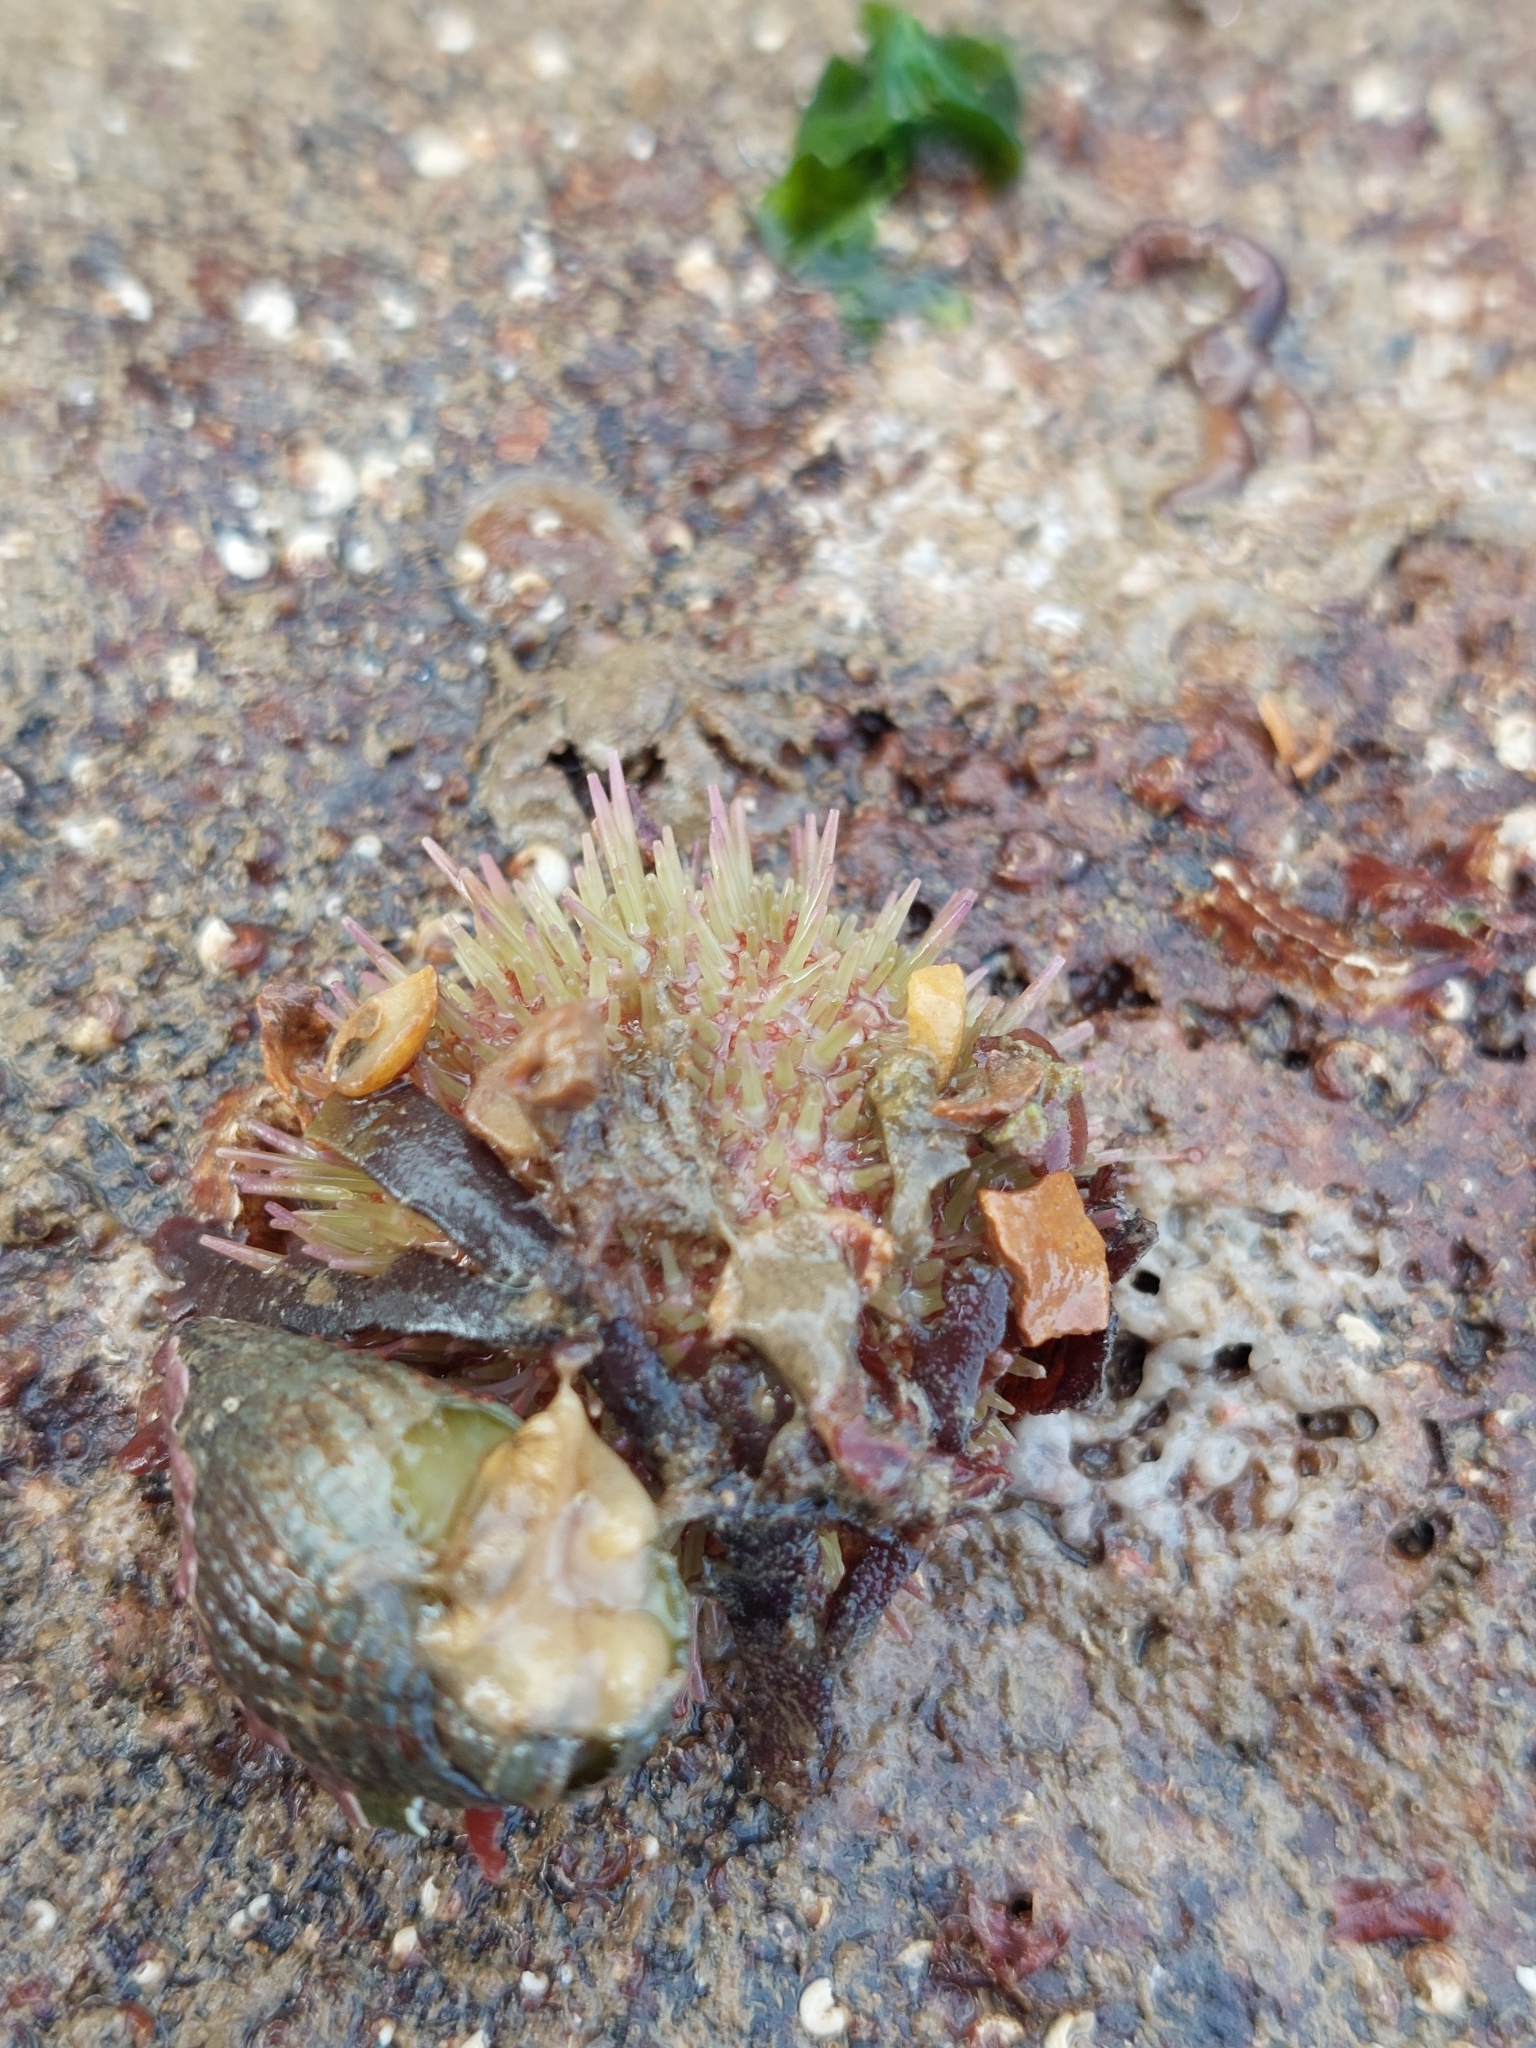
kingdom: Animalia
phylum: Echinodermata
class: Echinoidea
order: Camarodonta
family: Parechinidae
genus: Psammechinus
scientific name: Psammechinus miliaris
